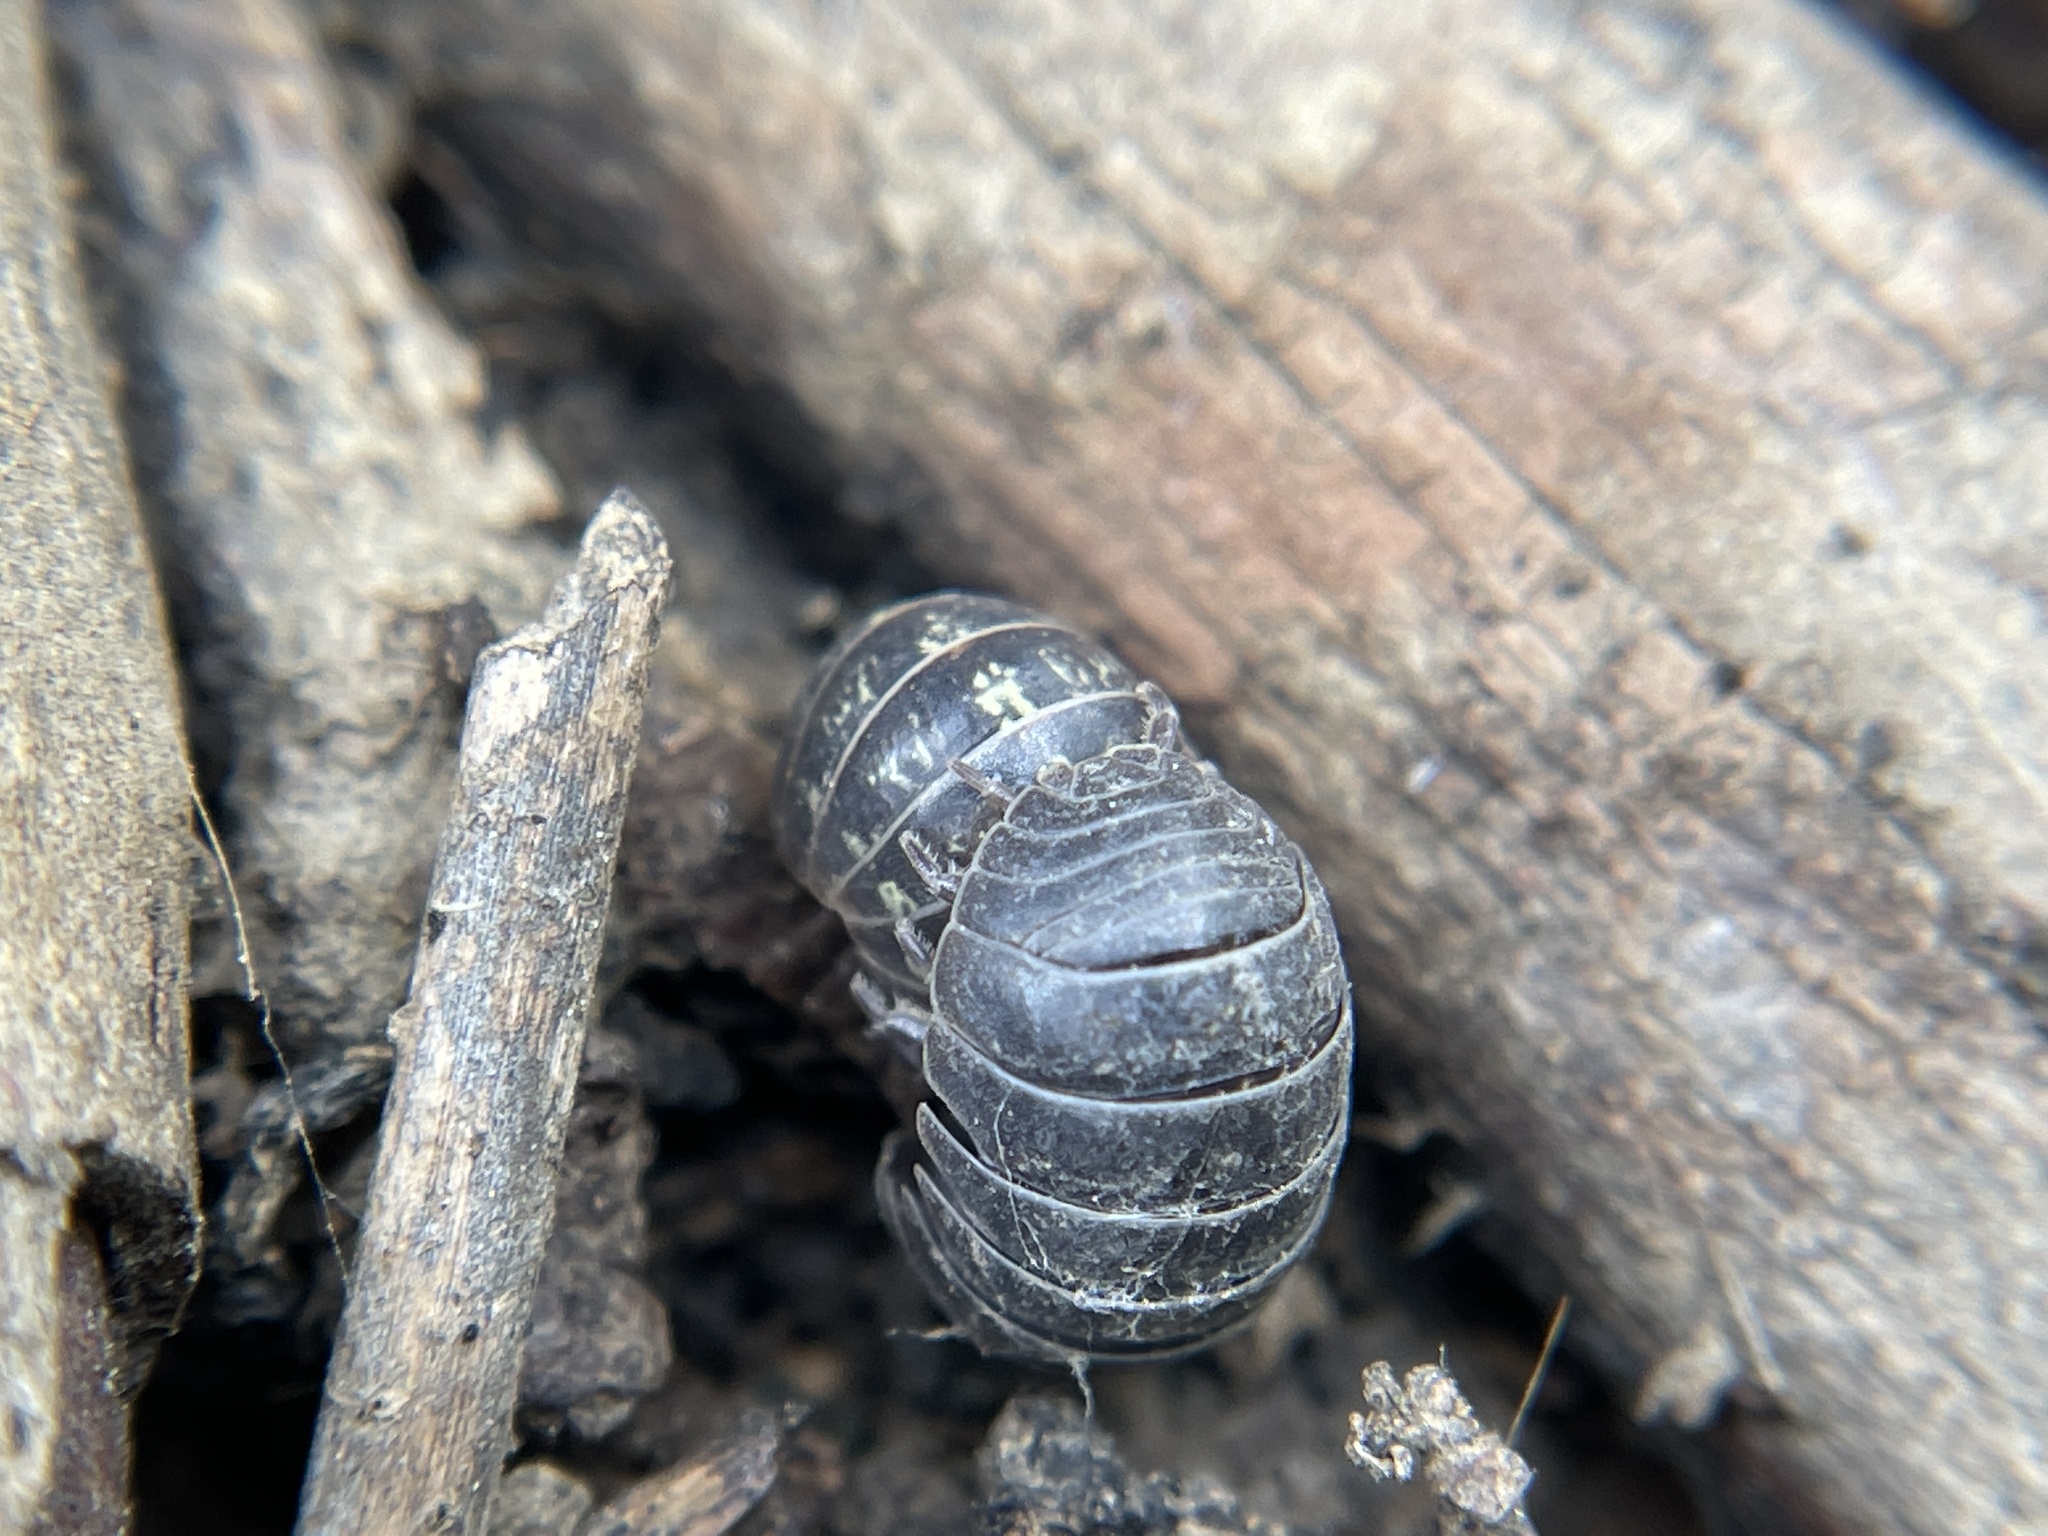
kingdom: Animalia
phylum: Arthropoda
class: Malacostraca
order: Isopoda
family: Armadillidiidae
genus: Armadillidium
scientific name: Armadillidium vulgare
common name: Common pill woodlouse
